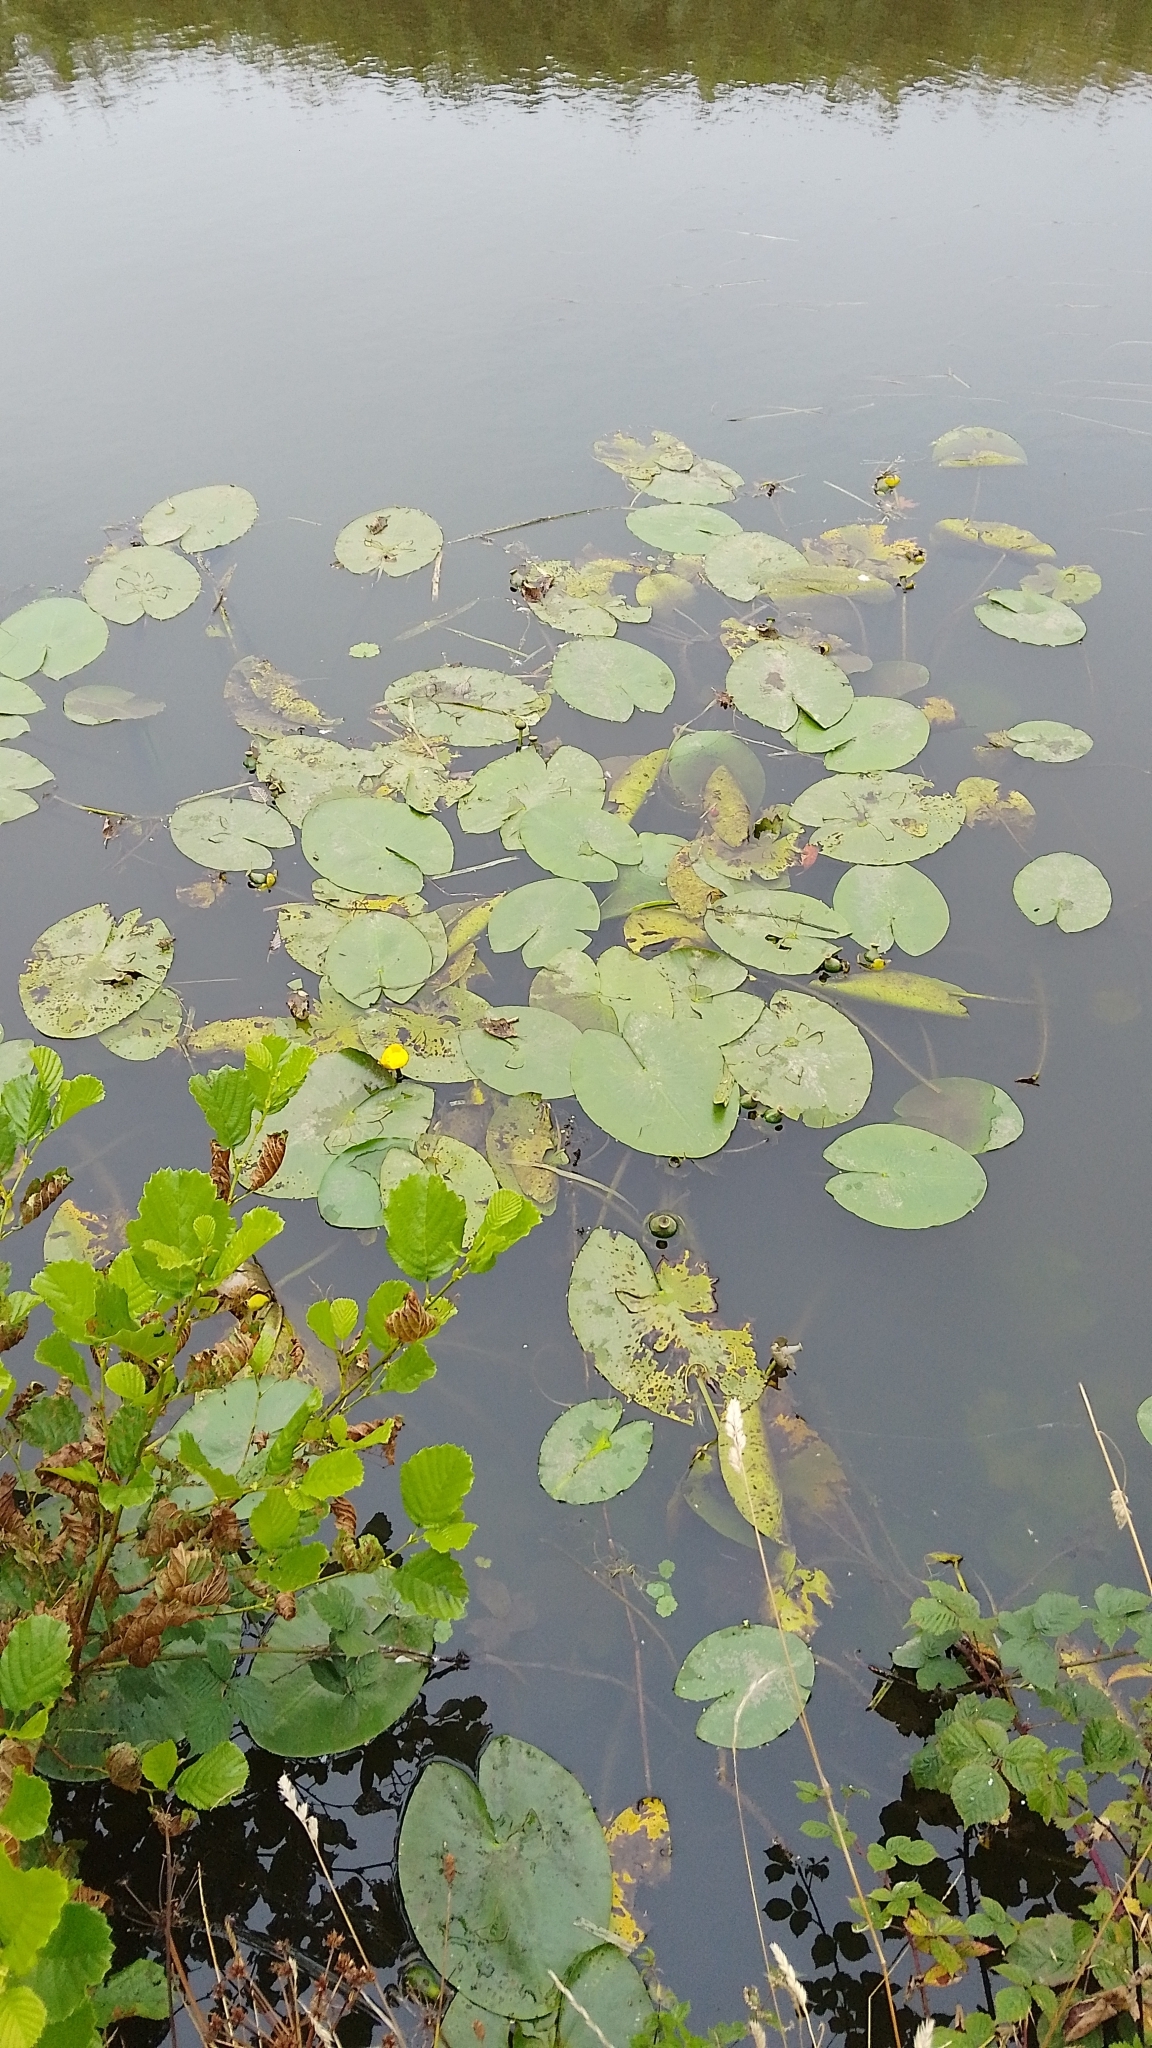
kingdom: Plantae
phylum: Tracheophyta
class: Magnoliopsida
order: Nymphaeales
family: Nymphaeaceae
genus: Nuphar
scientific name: Nuphar lutea
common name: Yellow water-lily
